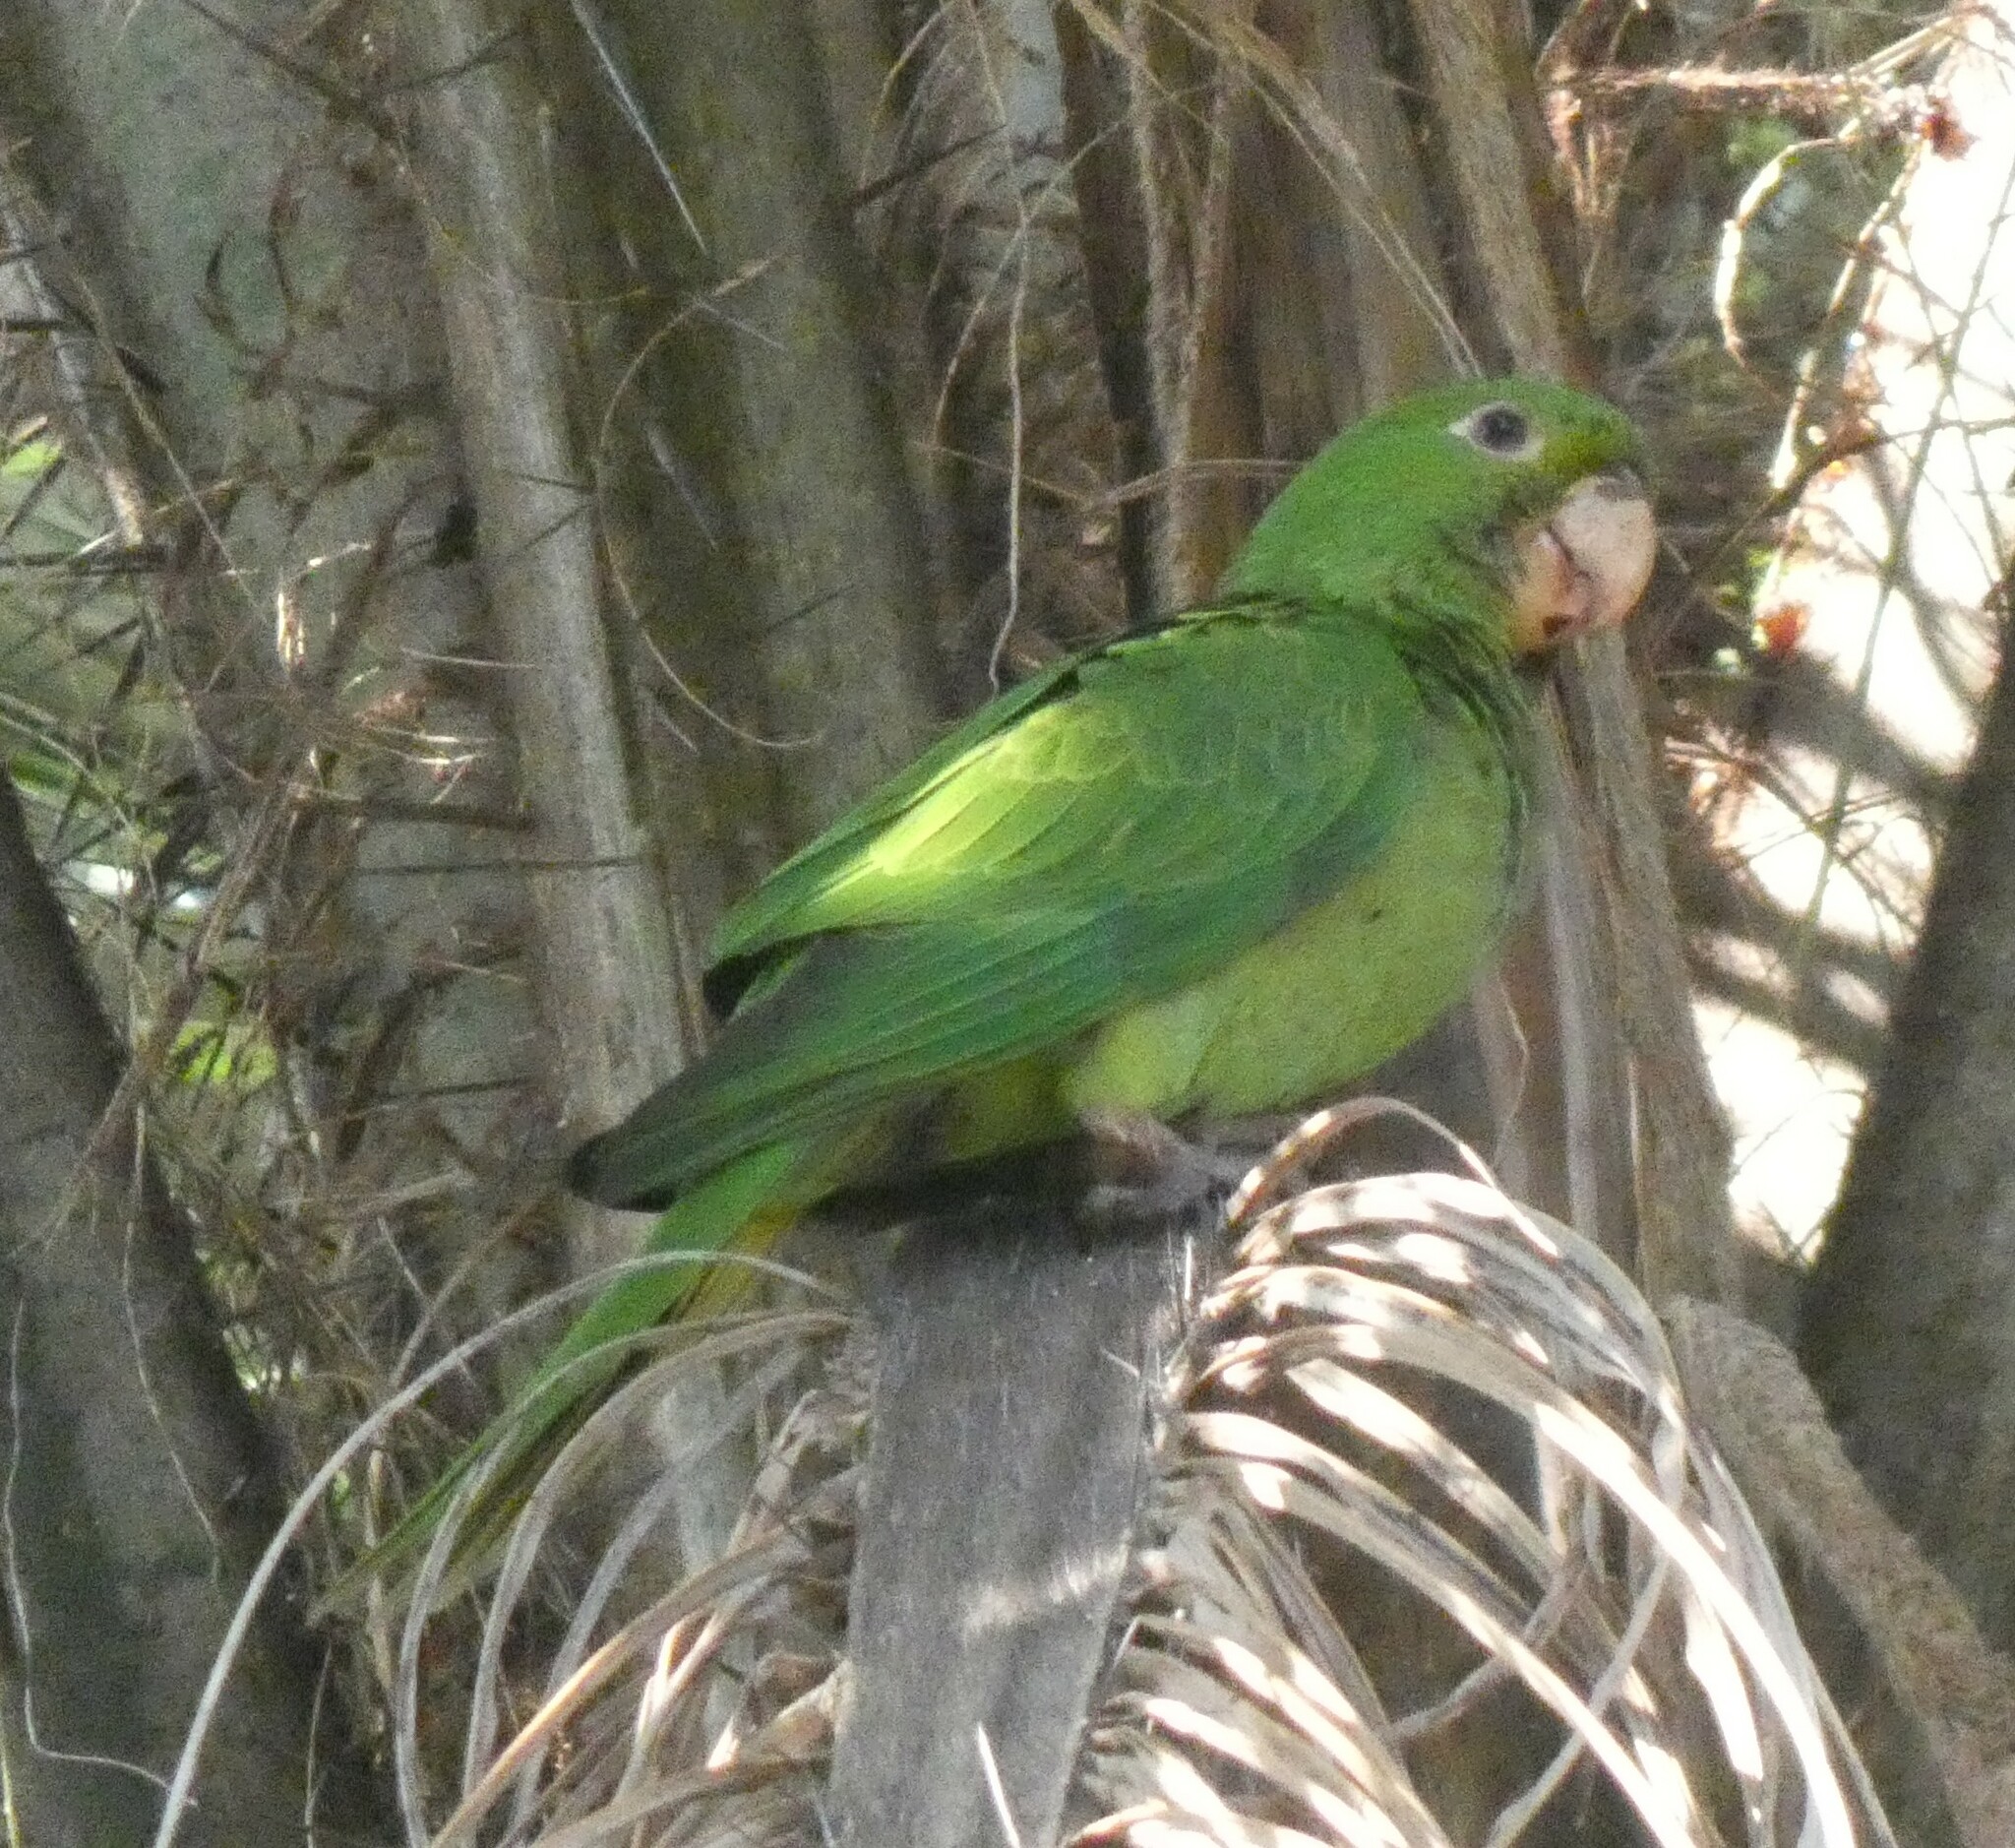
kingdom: Animalia
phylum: Chordata
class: Aves
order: Psittaciformes
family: Psittacidae
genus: Aratinga
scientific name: Aratinga leucophthalma
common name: White-eyed parakeet
